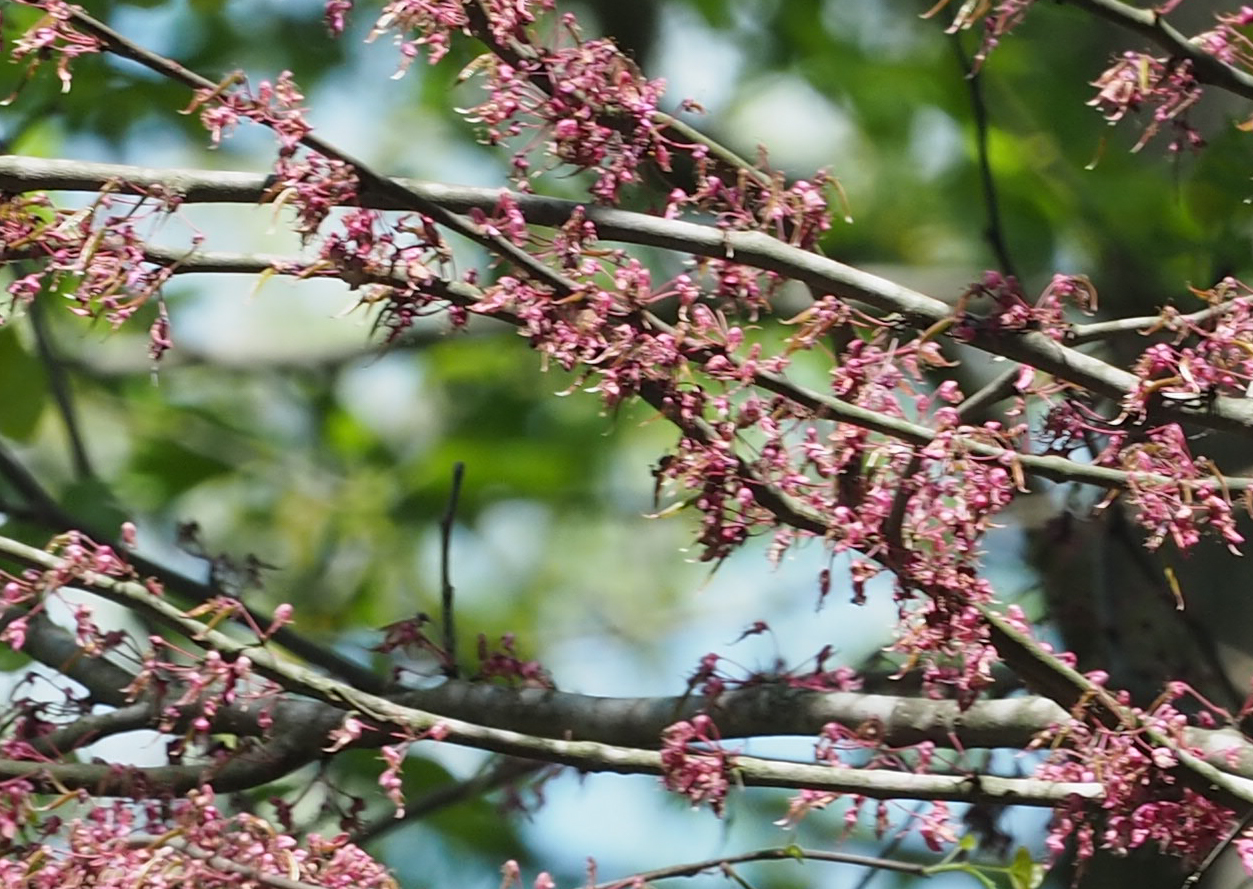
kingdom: Plantae
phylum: Tracheophyta
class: Magnoliopsida
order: Fabales
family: Fabaceae
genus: Cercis
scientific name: Cercis canadensis
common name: Eastern redbud
